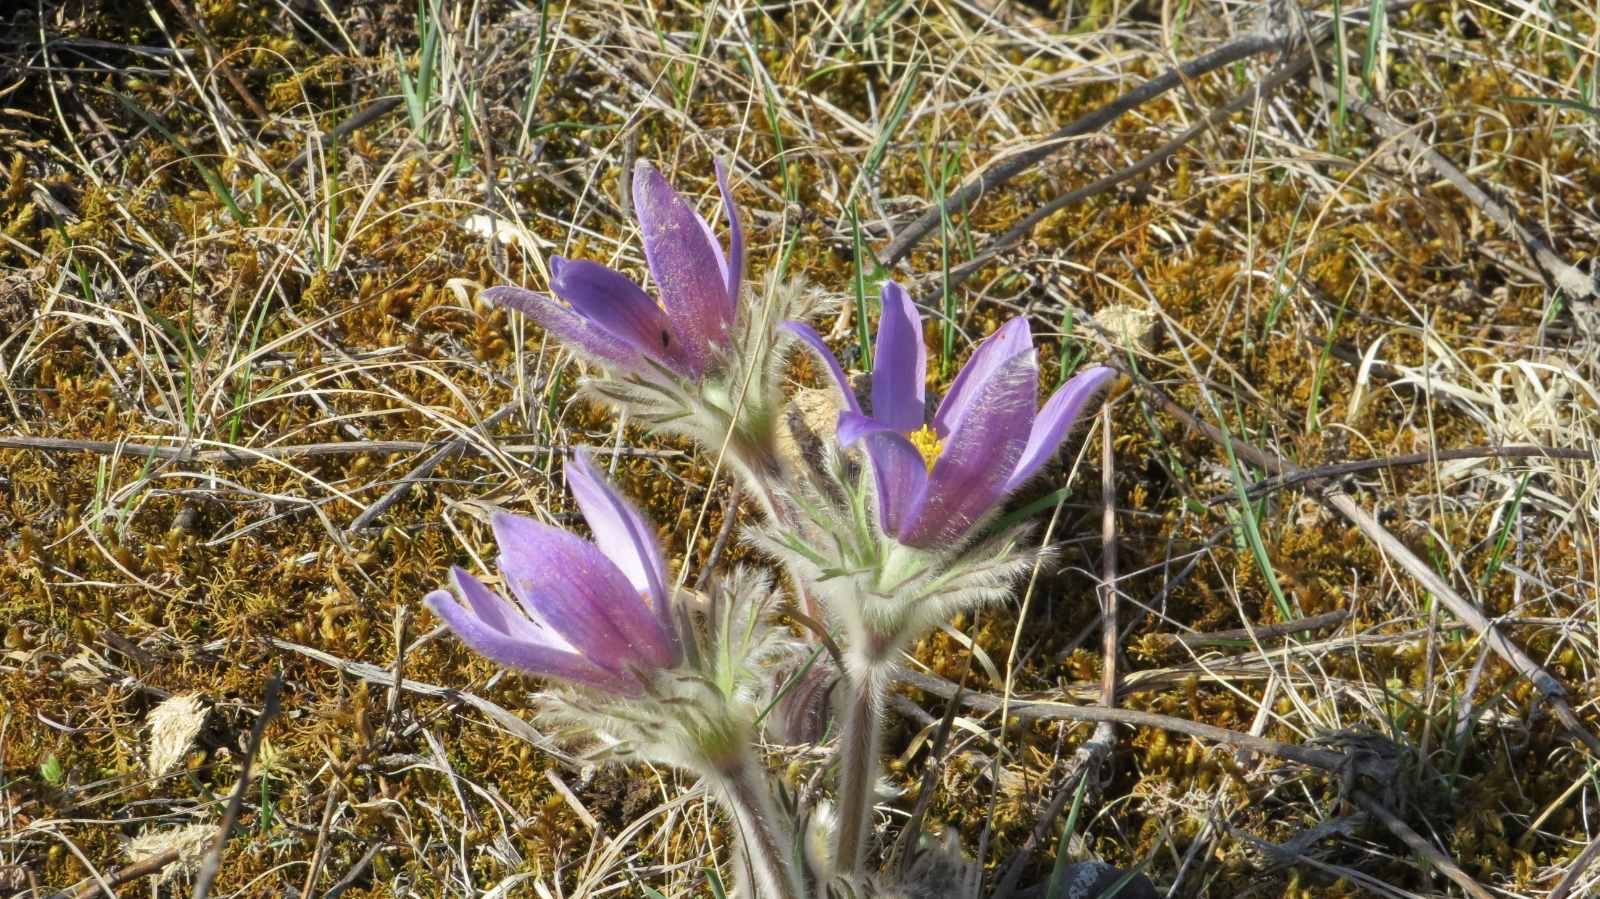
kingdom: Plantae
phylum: Tracheophyta
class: Magnoliopsida
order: Ranunculales
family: Ranunculaceae
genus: Pulsatilla
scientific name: Pulsatilla patens
